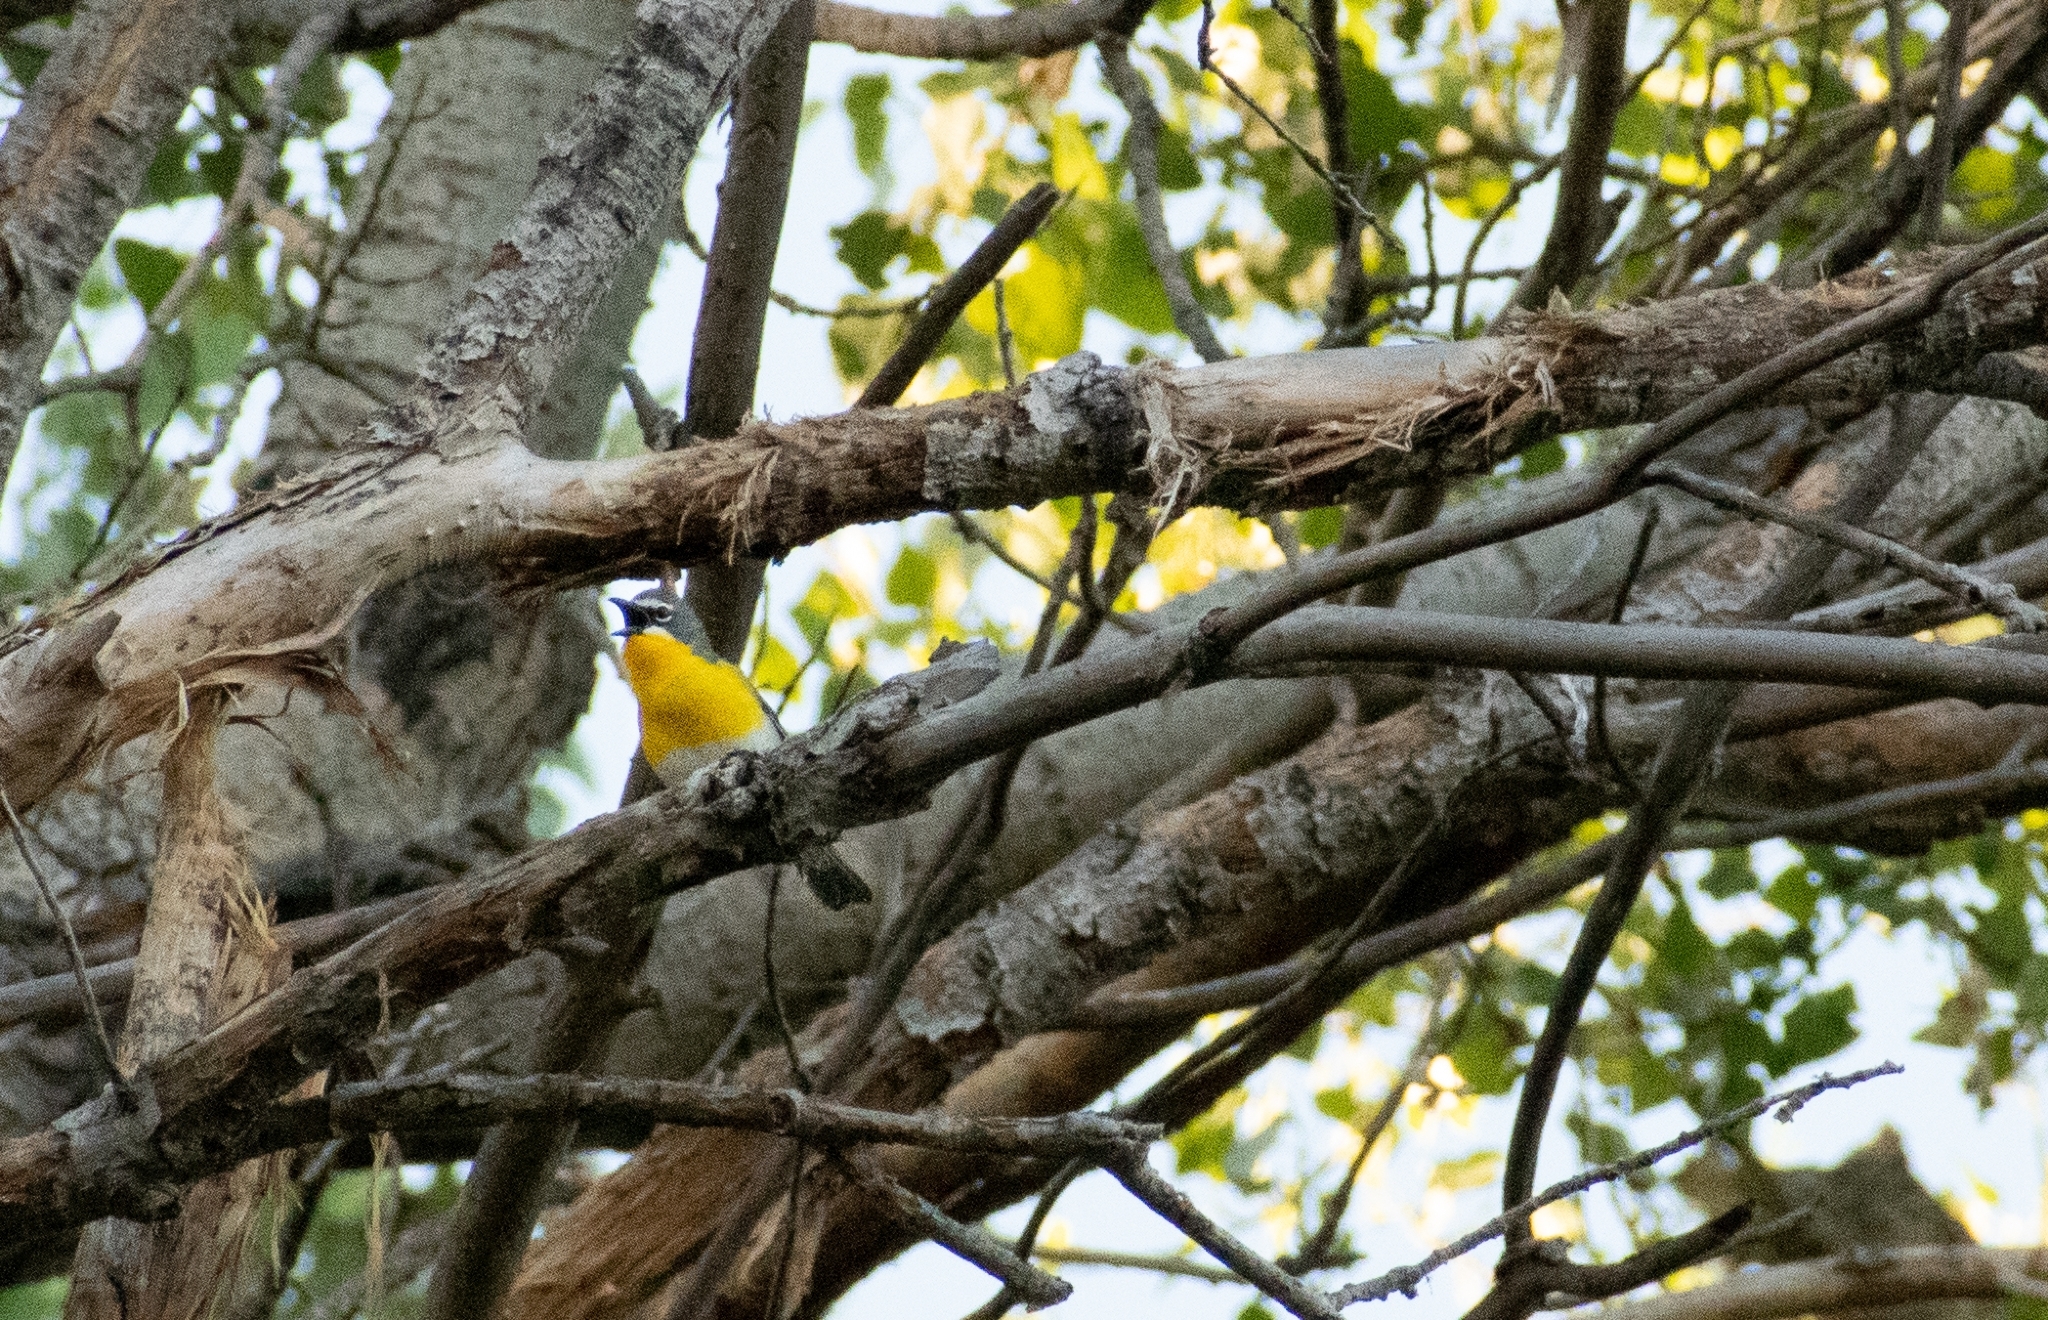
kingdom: Animalia
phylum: Chordata
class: Aves
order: Passeriformes
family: Parulidae
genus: Icteria
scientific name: Icteria virens
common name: Yellow-breasted chat
